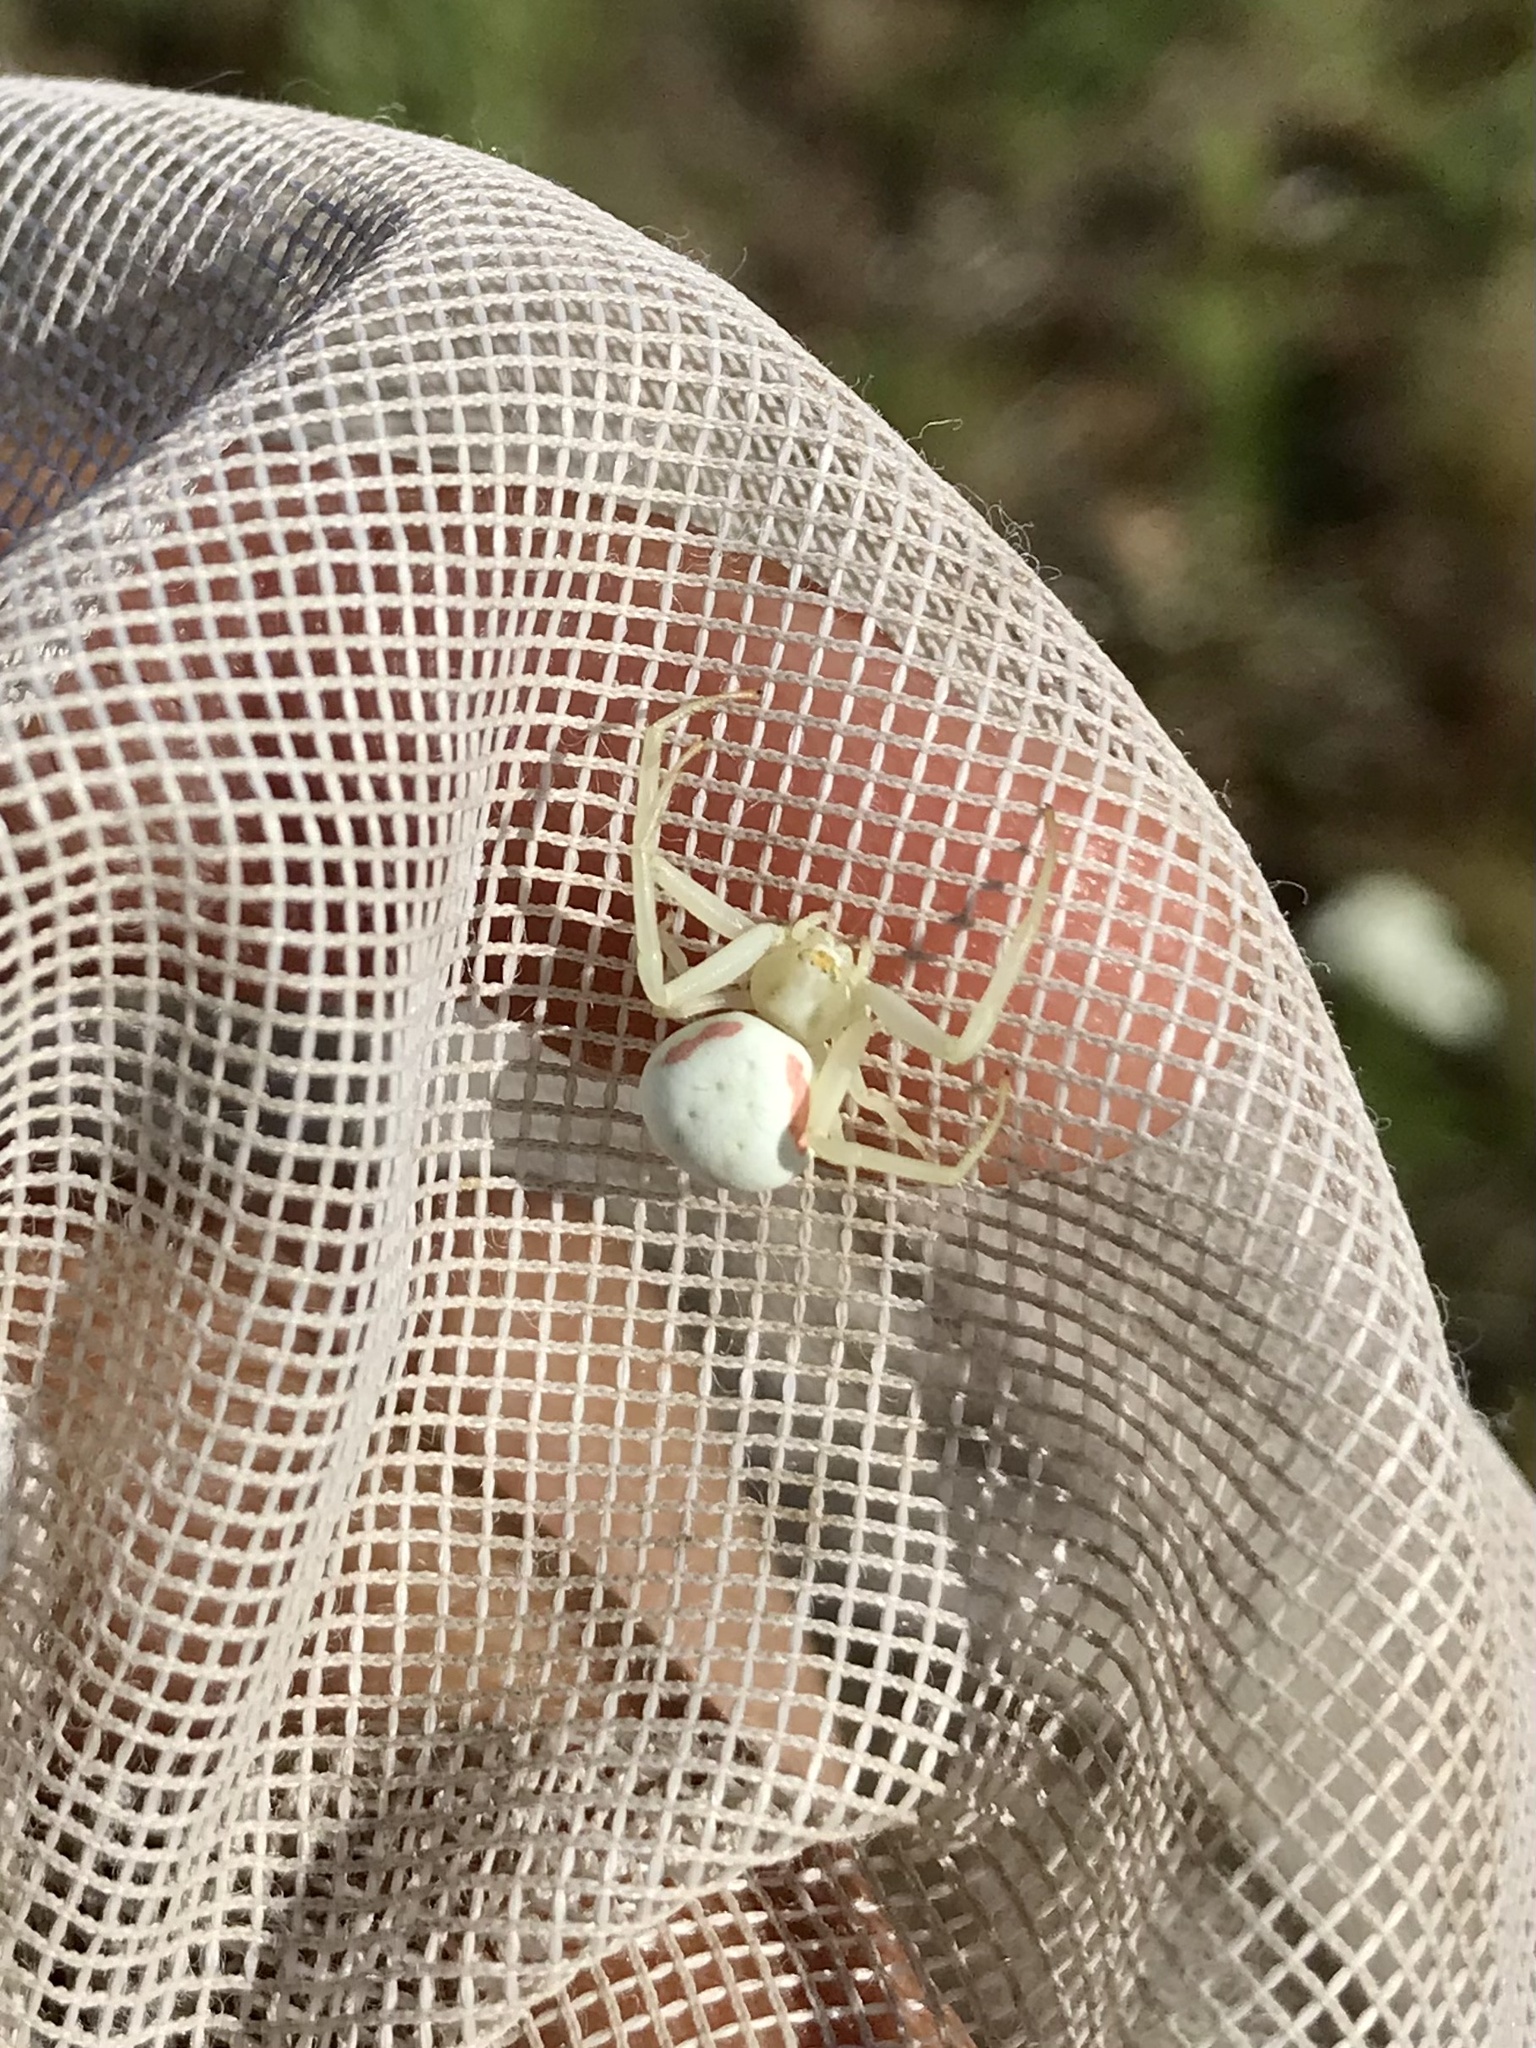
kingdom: Animalia
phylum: Arthropoda
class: Arachnida
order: Araneae
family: Thomisidae
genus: Misumena
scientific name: Misumena vatia
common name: Goldenrod crab spider
